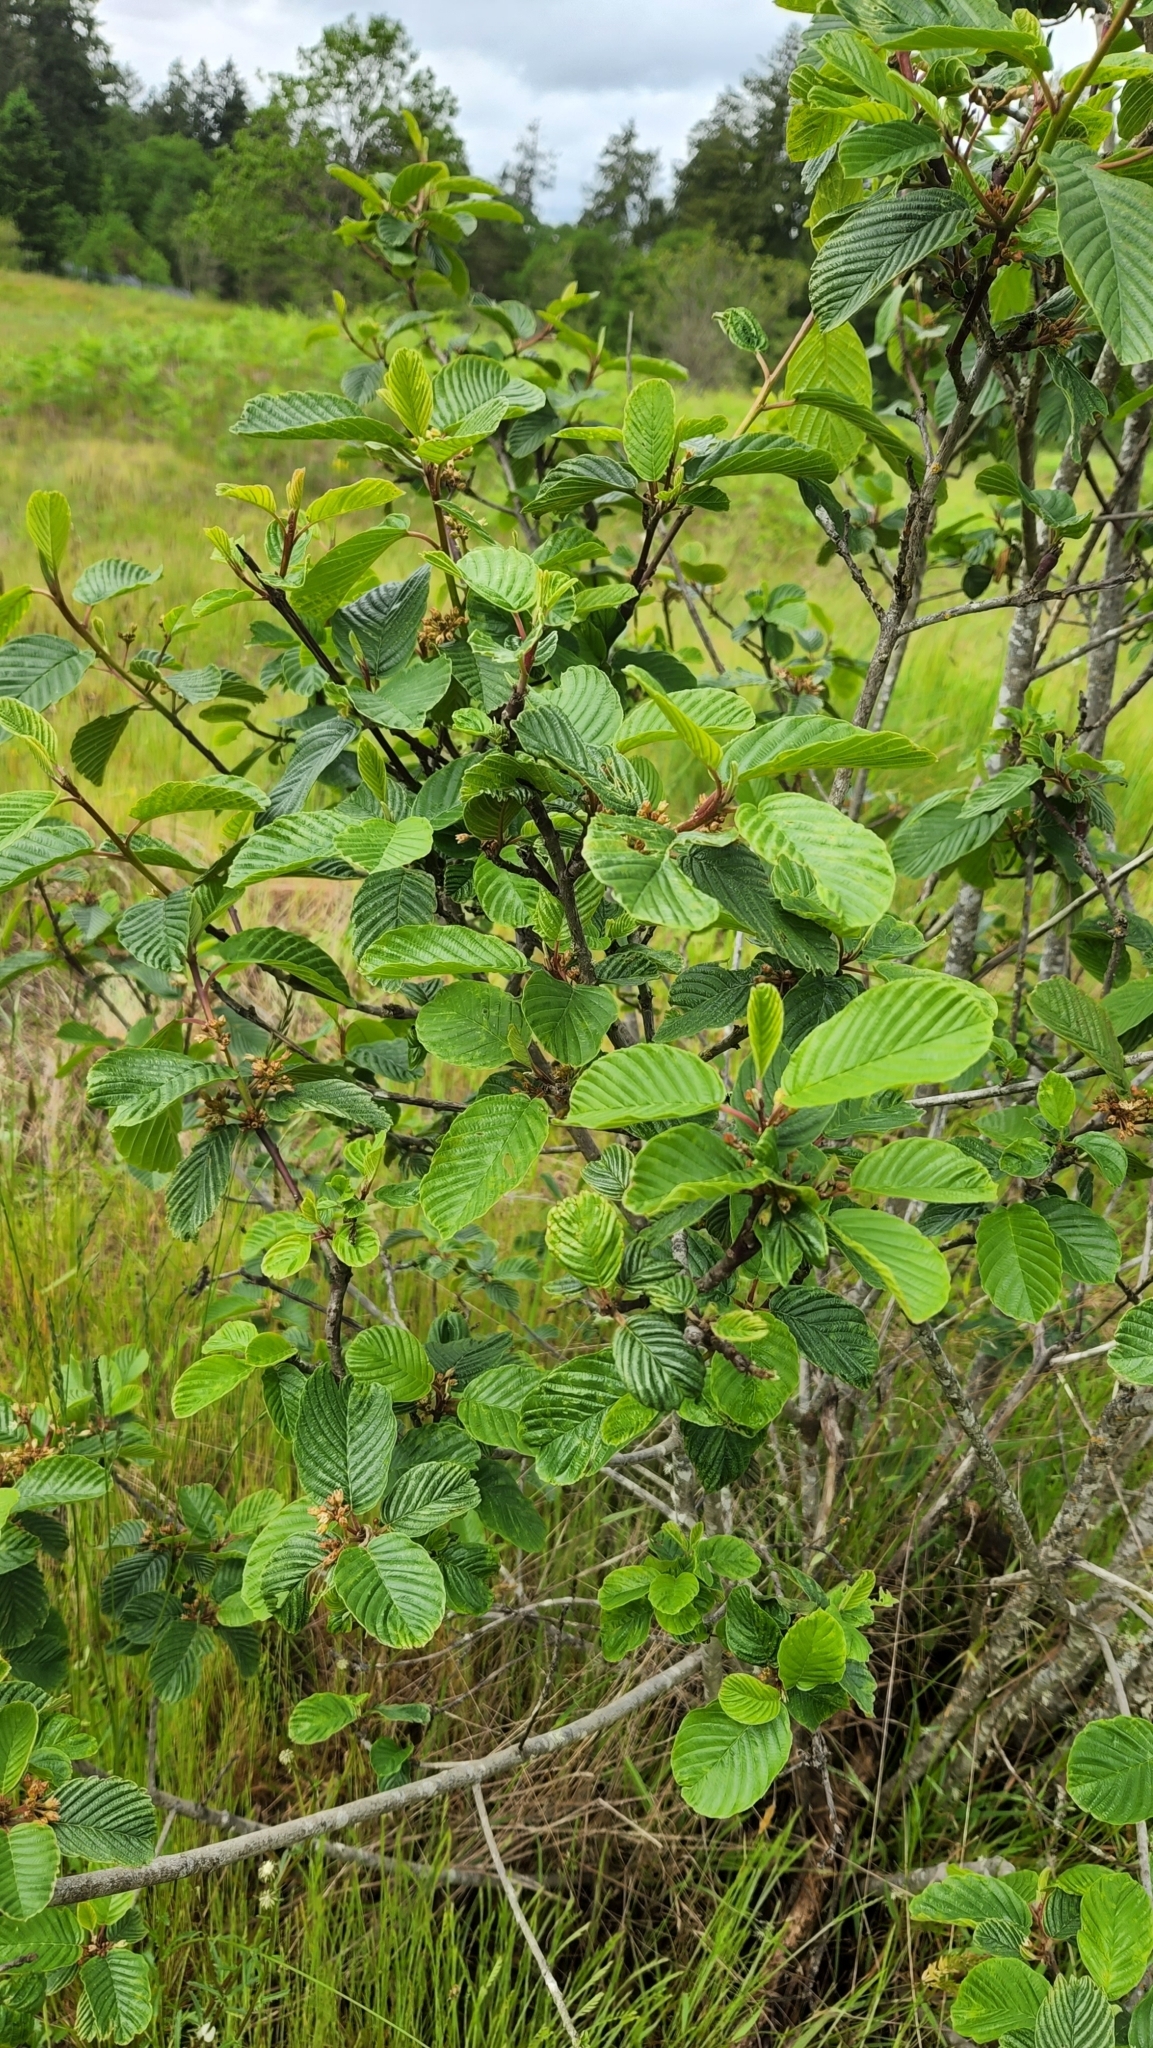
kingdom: Plantae
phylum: Tracheophyta
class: Magnoliopsida
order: Rosales
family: Rhamnaceae
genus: Frangula
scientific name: Frangula purshiana
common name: Cascara buckthorn
